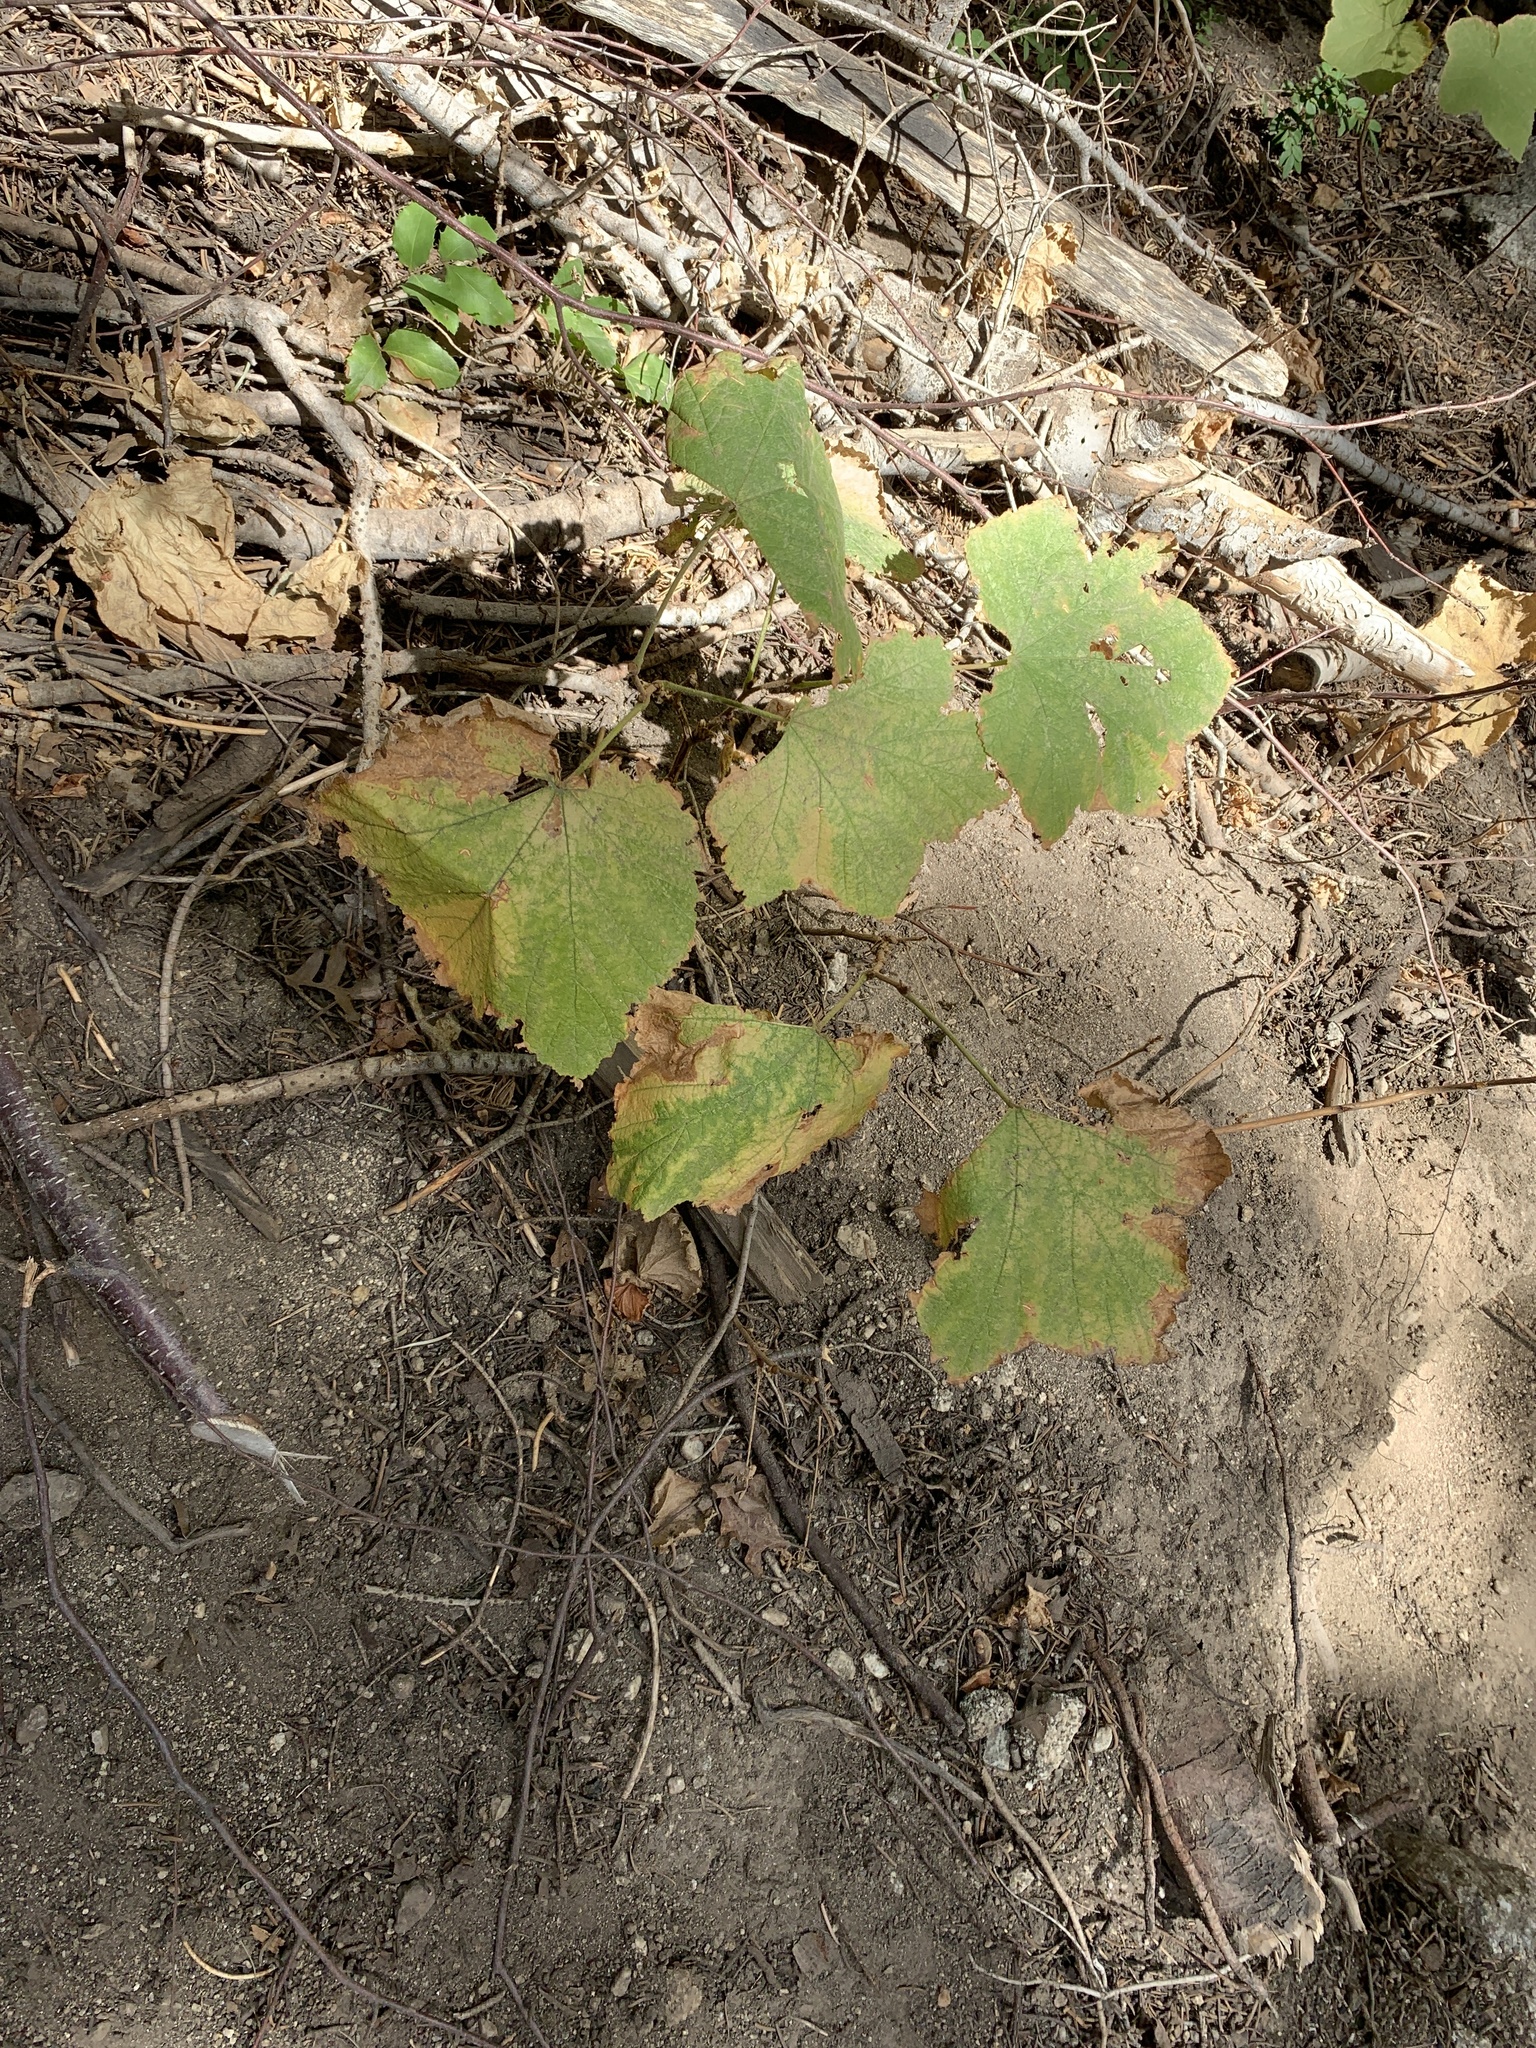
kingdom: Plantae
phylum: Tracheophyta
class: Magnoliopsida
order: Rosales
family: Rosaceae
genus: Rubus
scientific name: Rubus parviflorus
